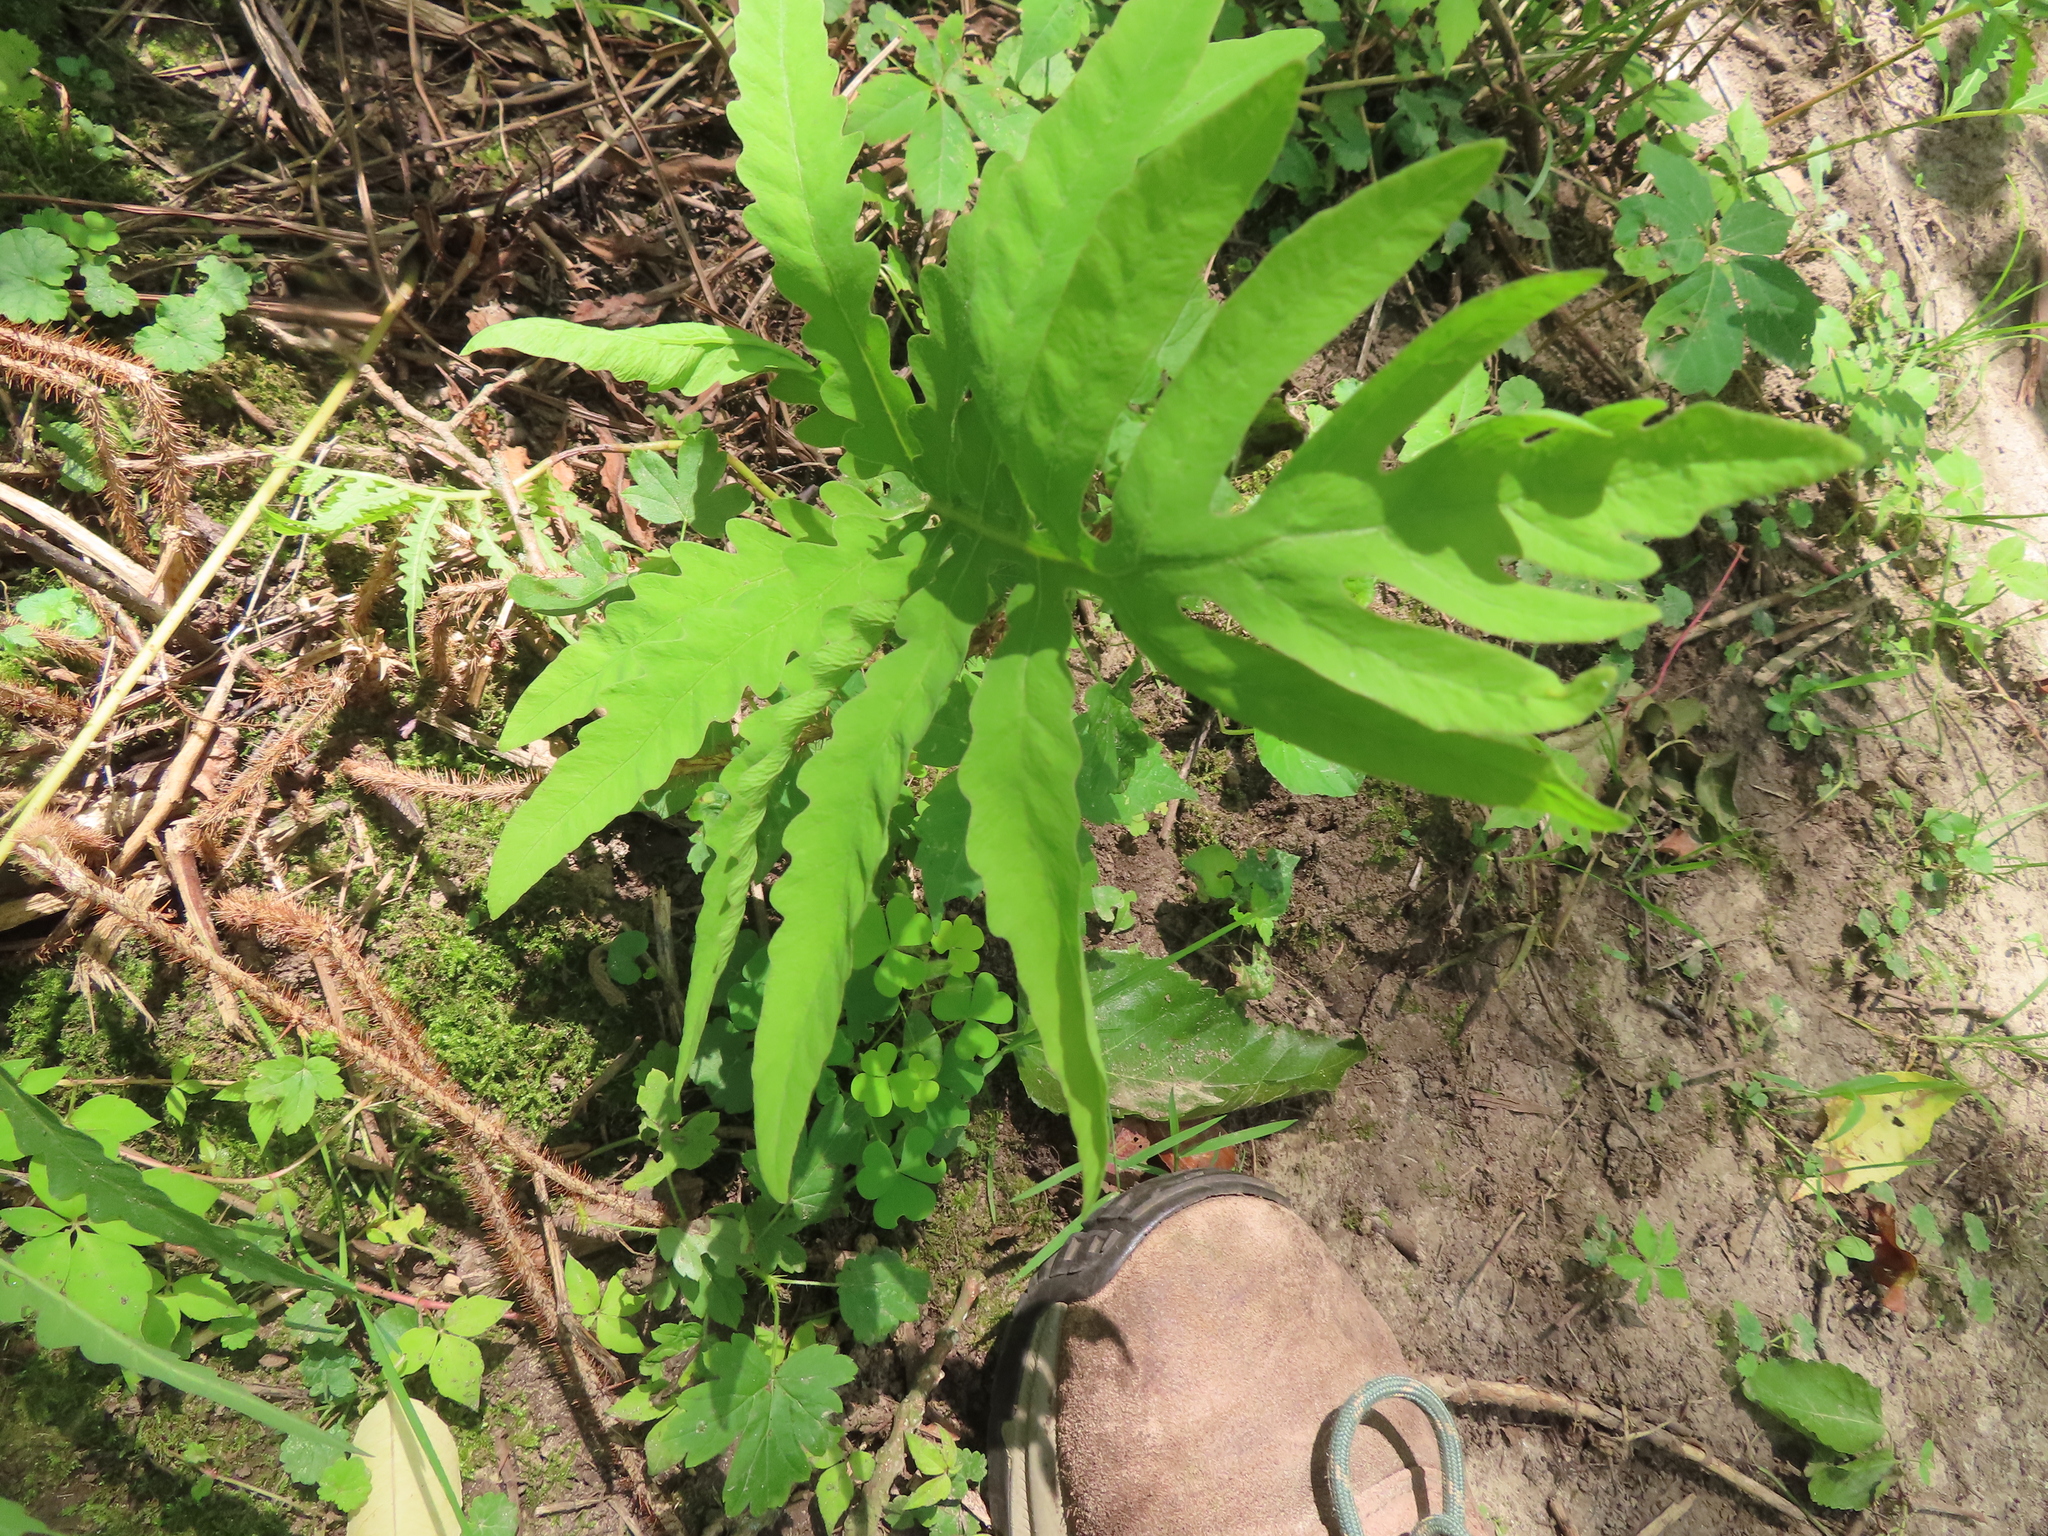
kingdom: Plantae
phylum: Tracheophyta
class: Polypodiopsida
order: Polypodiales
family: Onocleaceae
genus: Onoclea
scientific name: Onoclea sensibilis
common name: Sensitive fern
